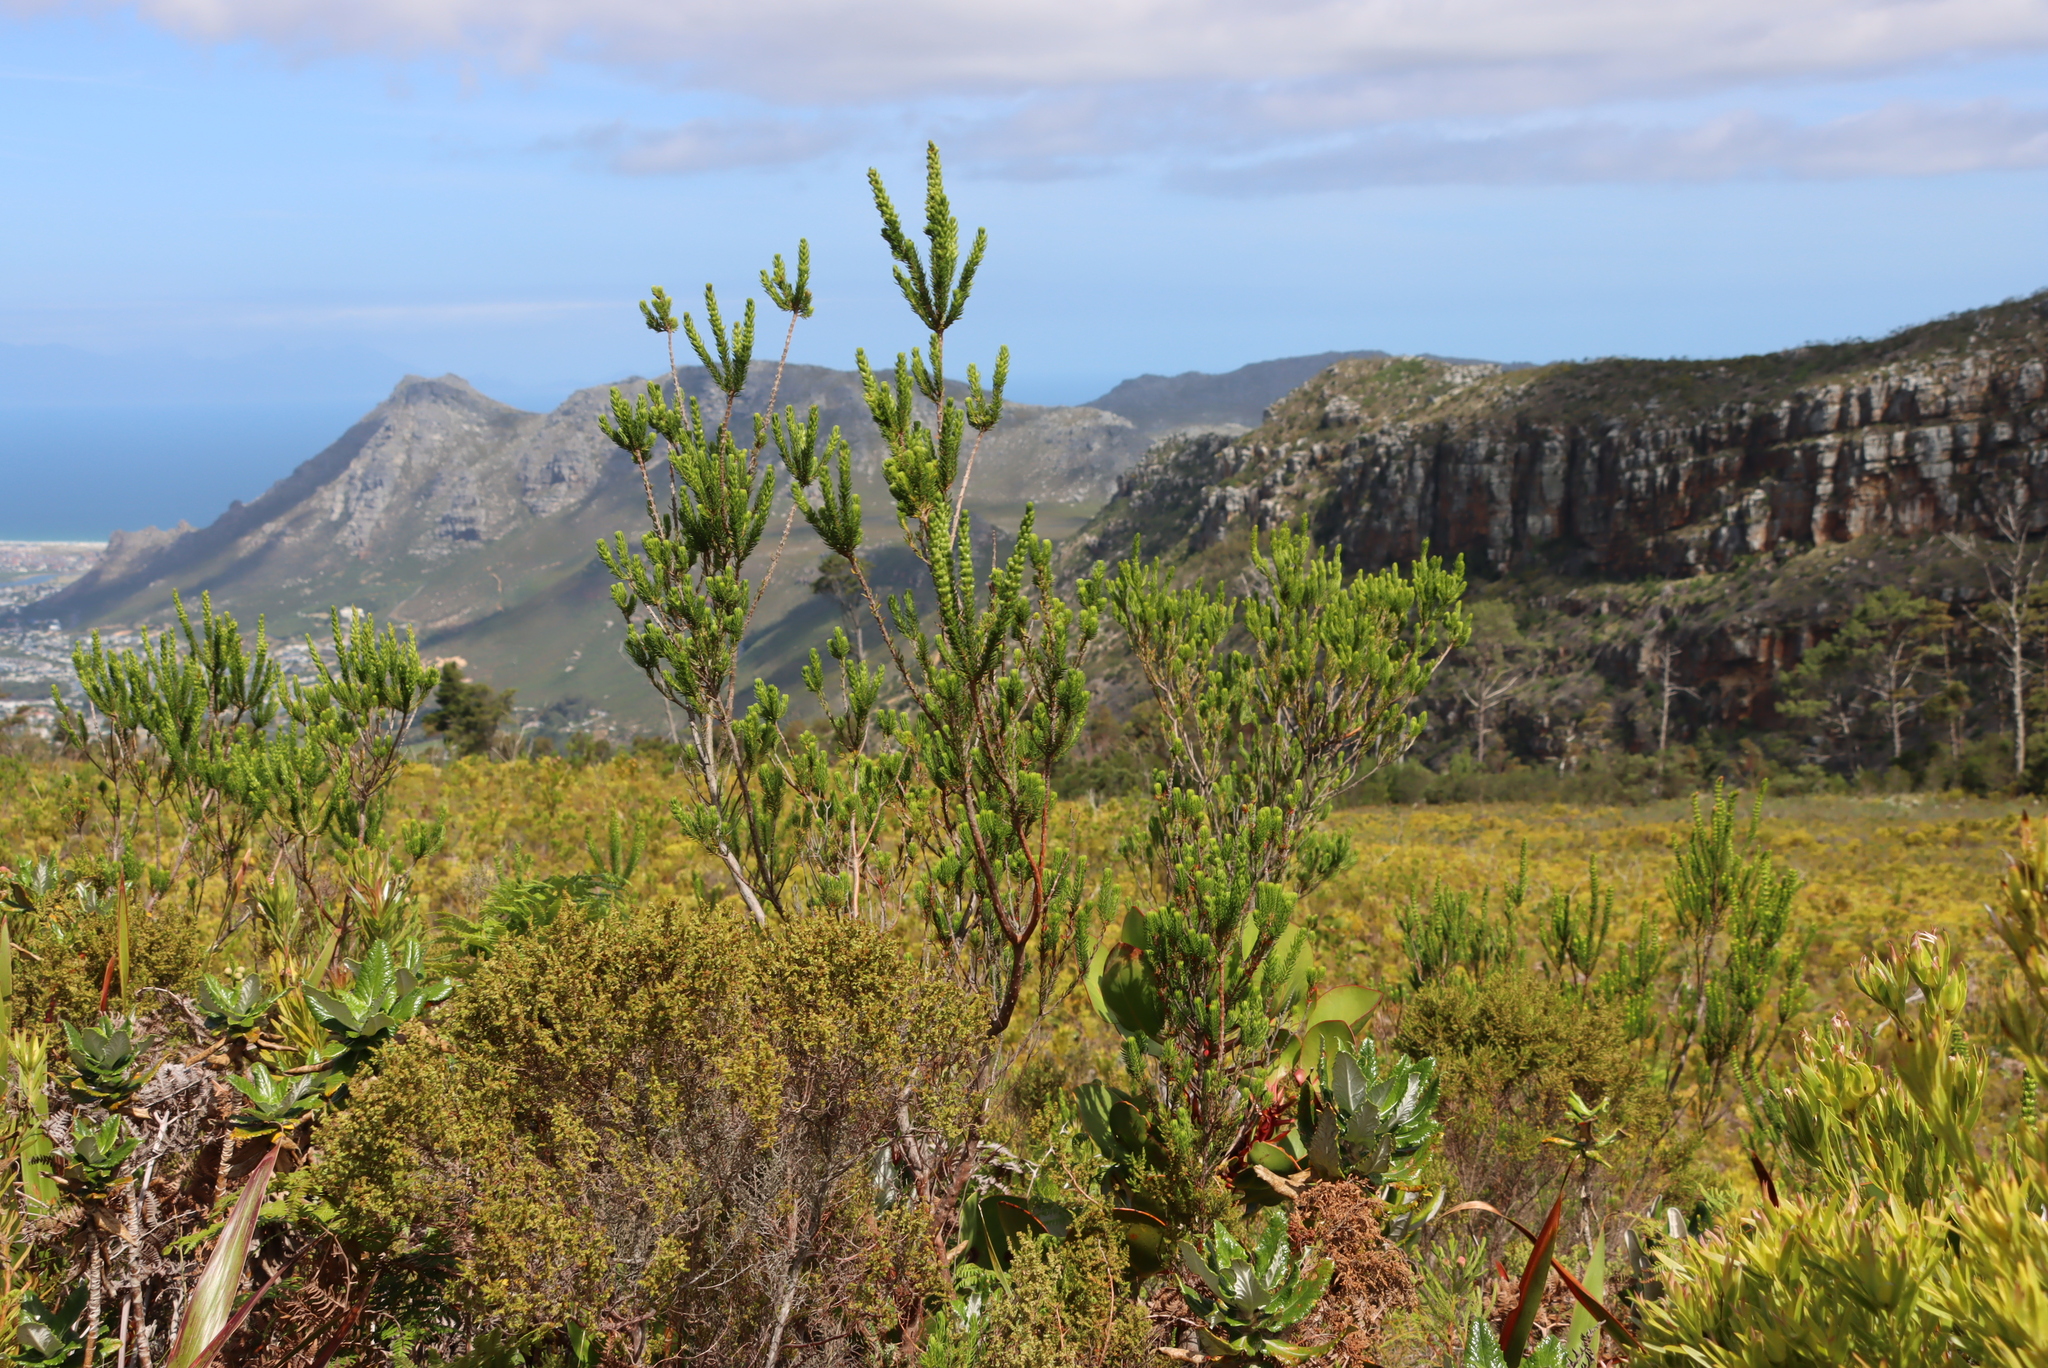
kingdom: Plantae
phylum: Tracheophyta
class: Magnoliopsida
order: Ericales
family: Ericaceae
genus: Erica
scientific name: Erica mammosa
